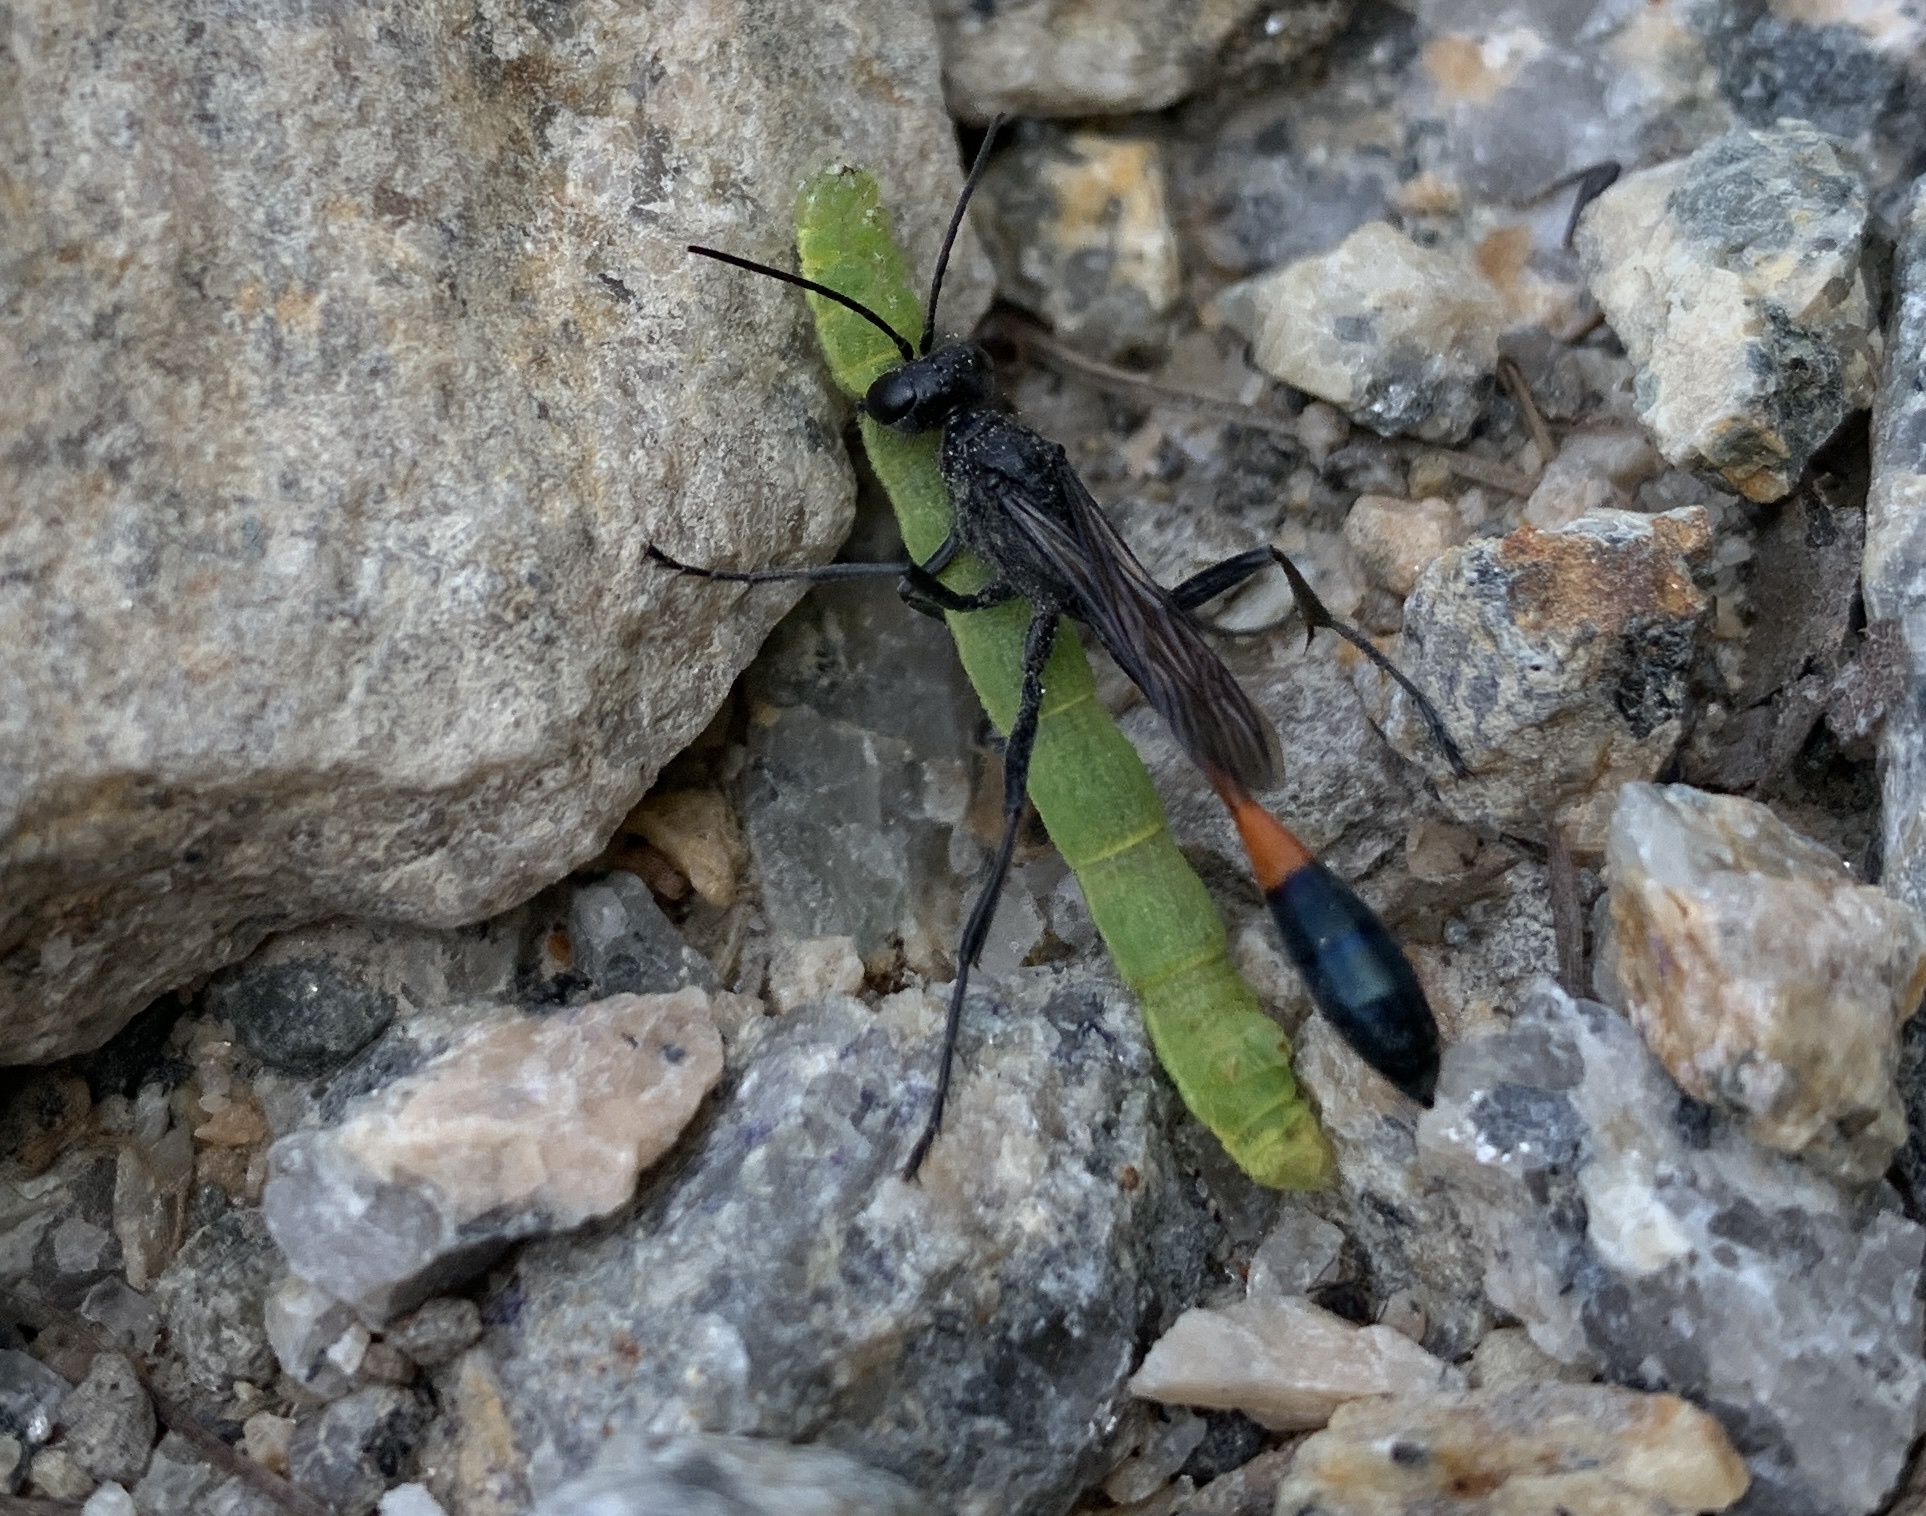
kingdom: Animalia
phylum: Arthropoda
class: Insecta
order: Hymenoptera
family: Sphecidae
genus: Ammophila
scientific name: Ammophila evansi
